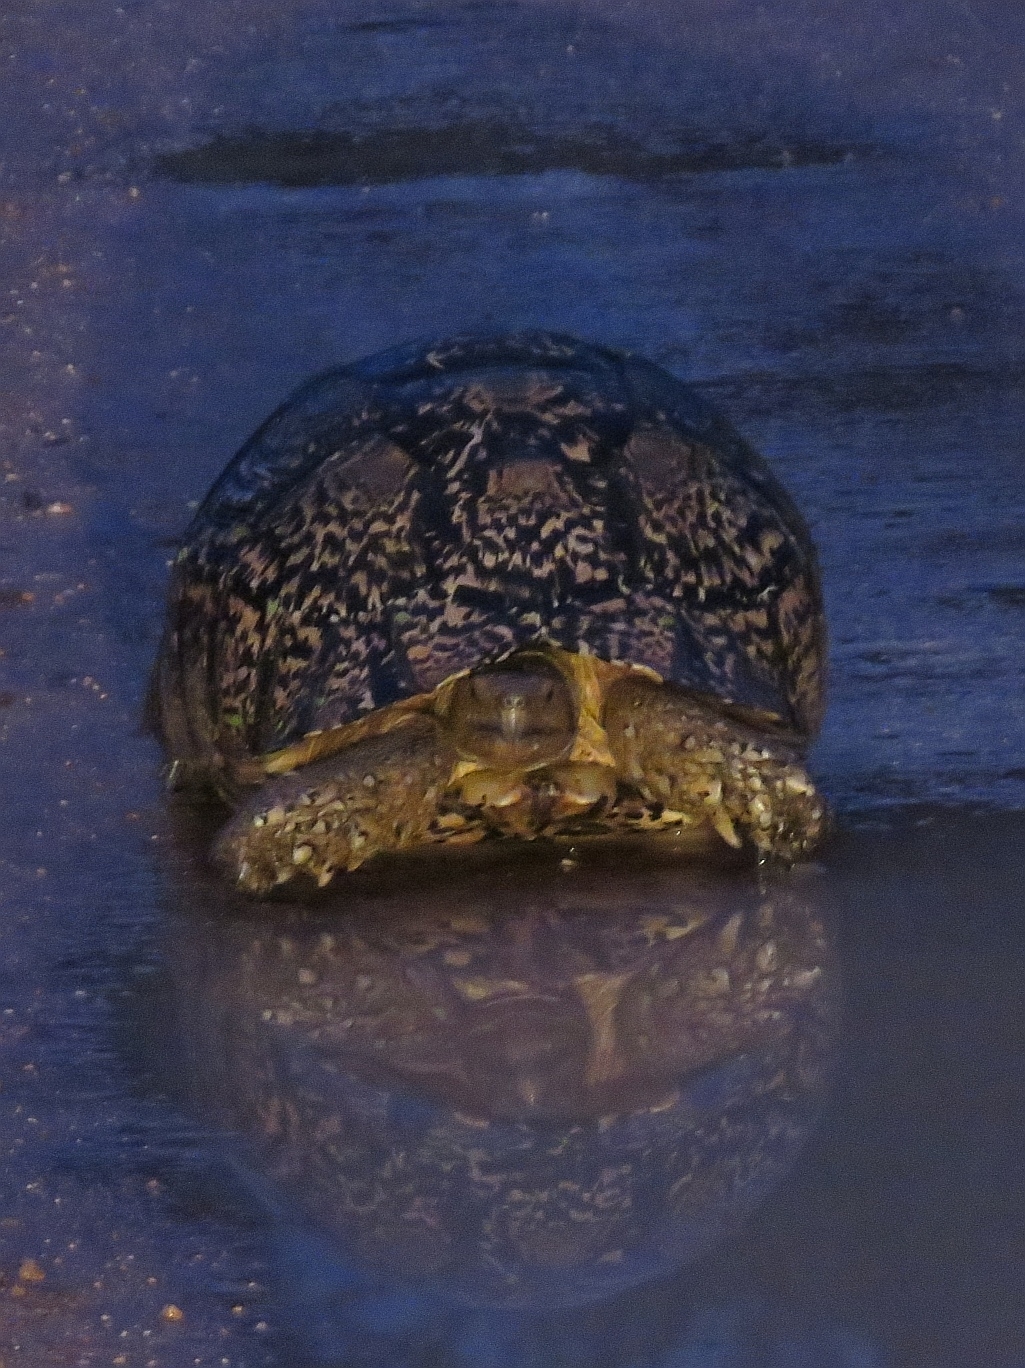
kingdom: Animalia
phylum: Chordata
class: Testudines
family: Testudinidae
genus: Stigmochelys
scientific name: Stigmochelys pardalis
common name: Leopard tortoise
